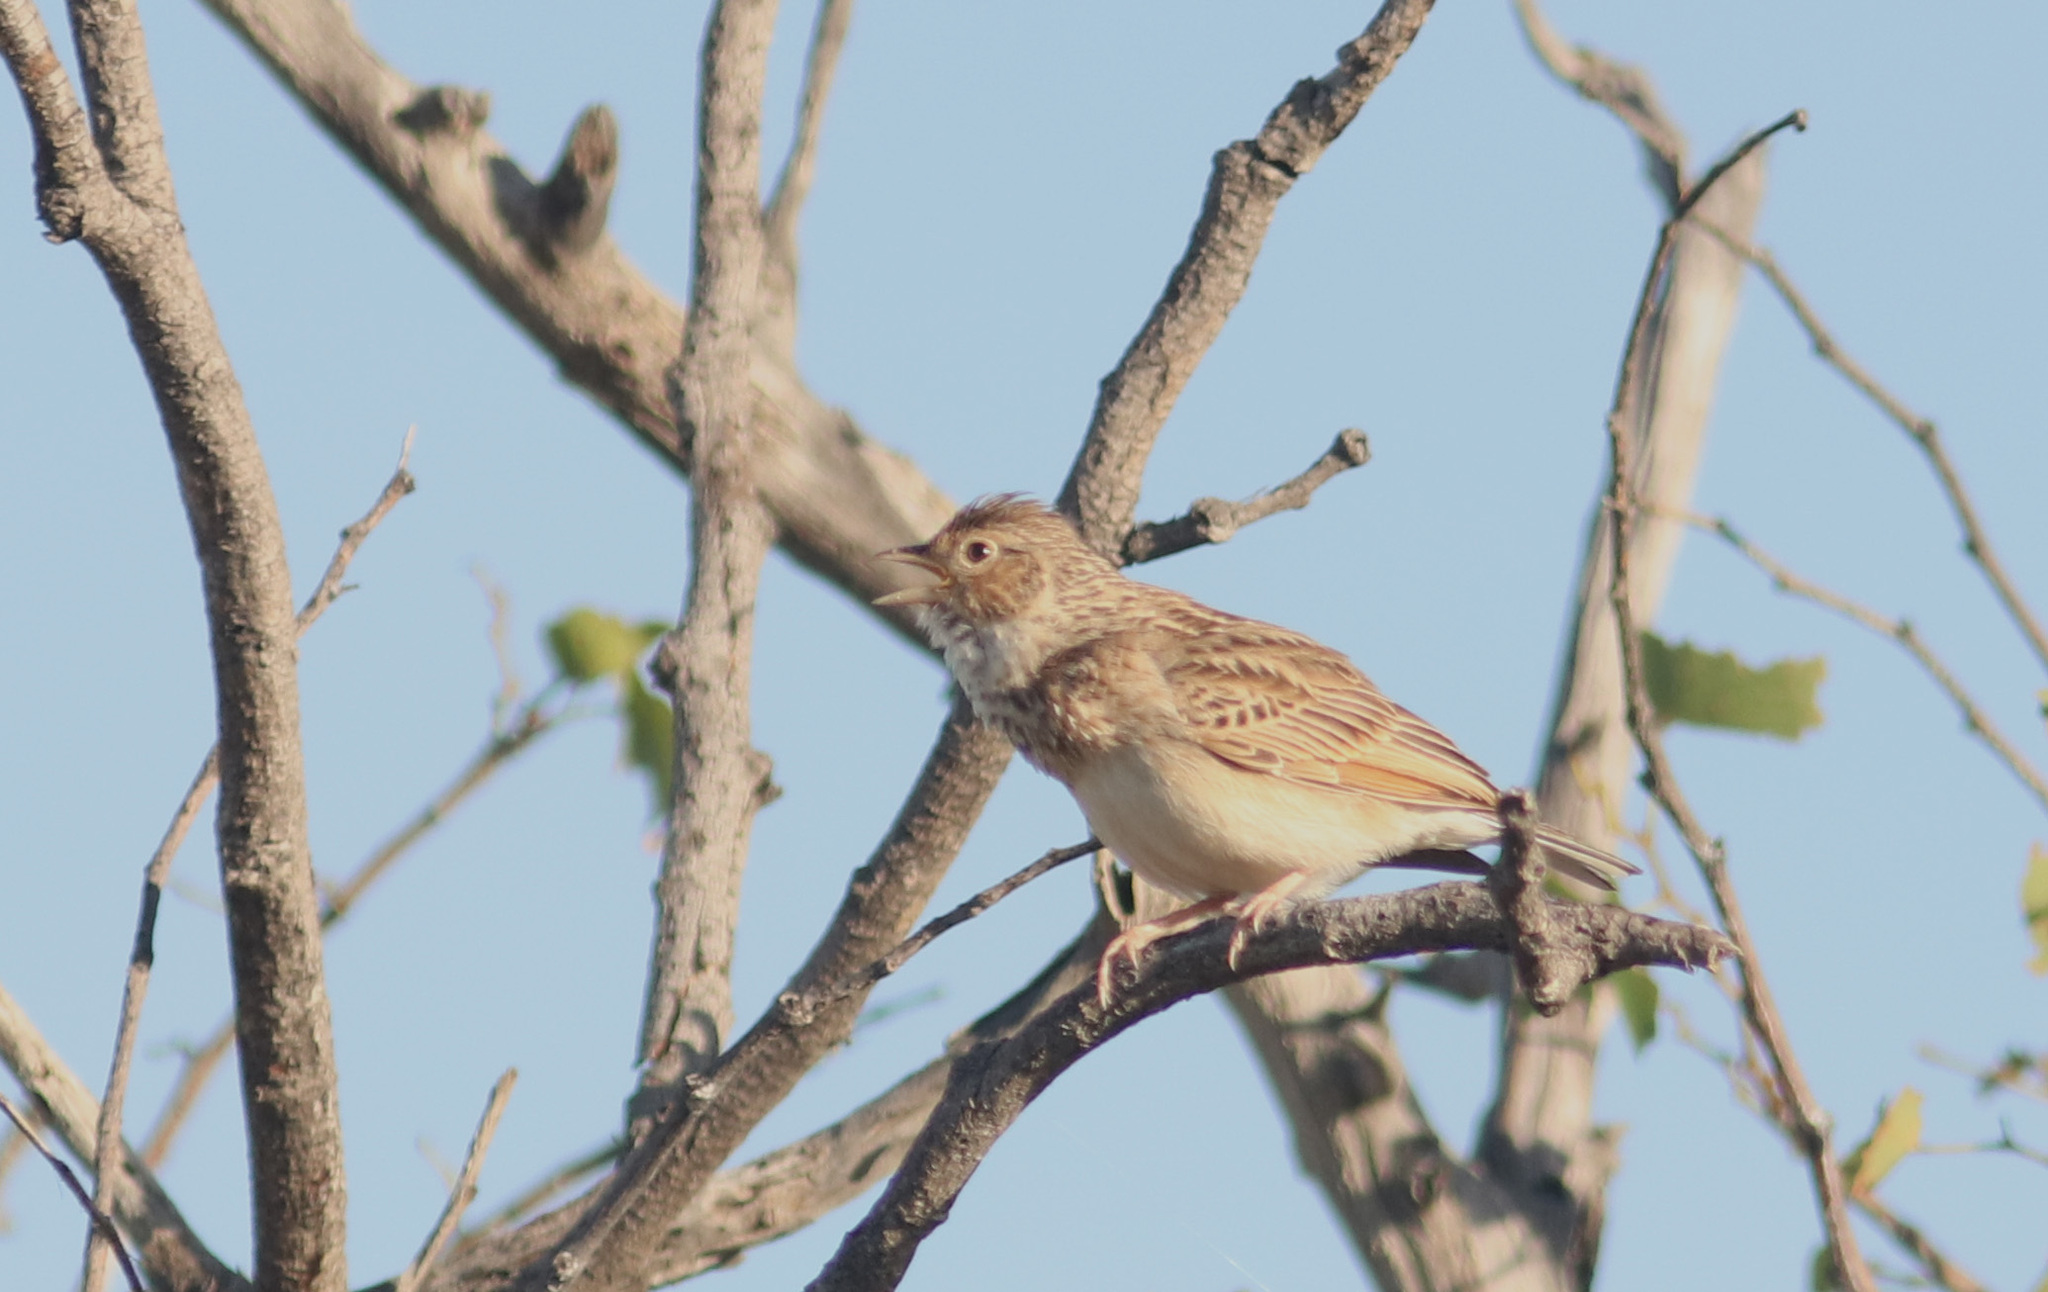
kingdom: Animalia
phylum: Chordata
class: Aves
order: Passeriformes
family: Alaudidae
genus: Mirafra
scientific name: Mirafra passerina
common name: Monotonous lark
